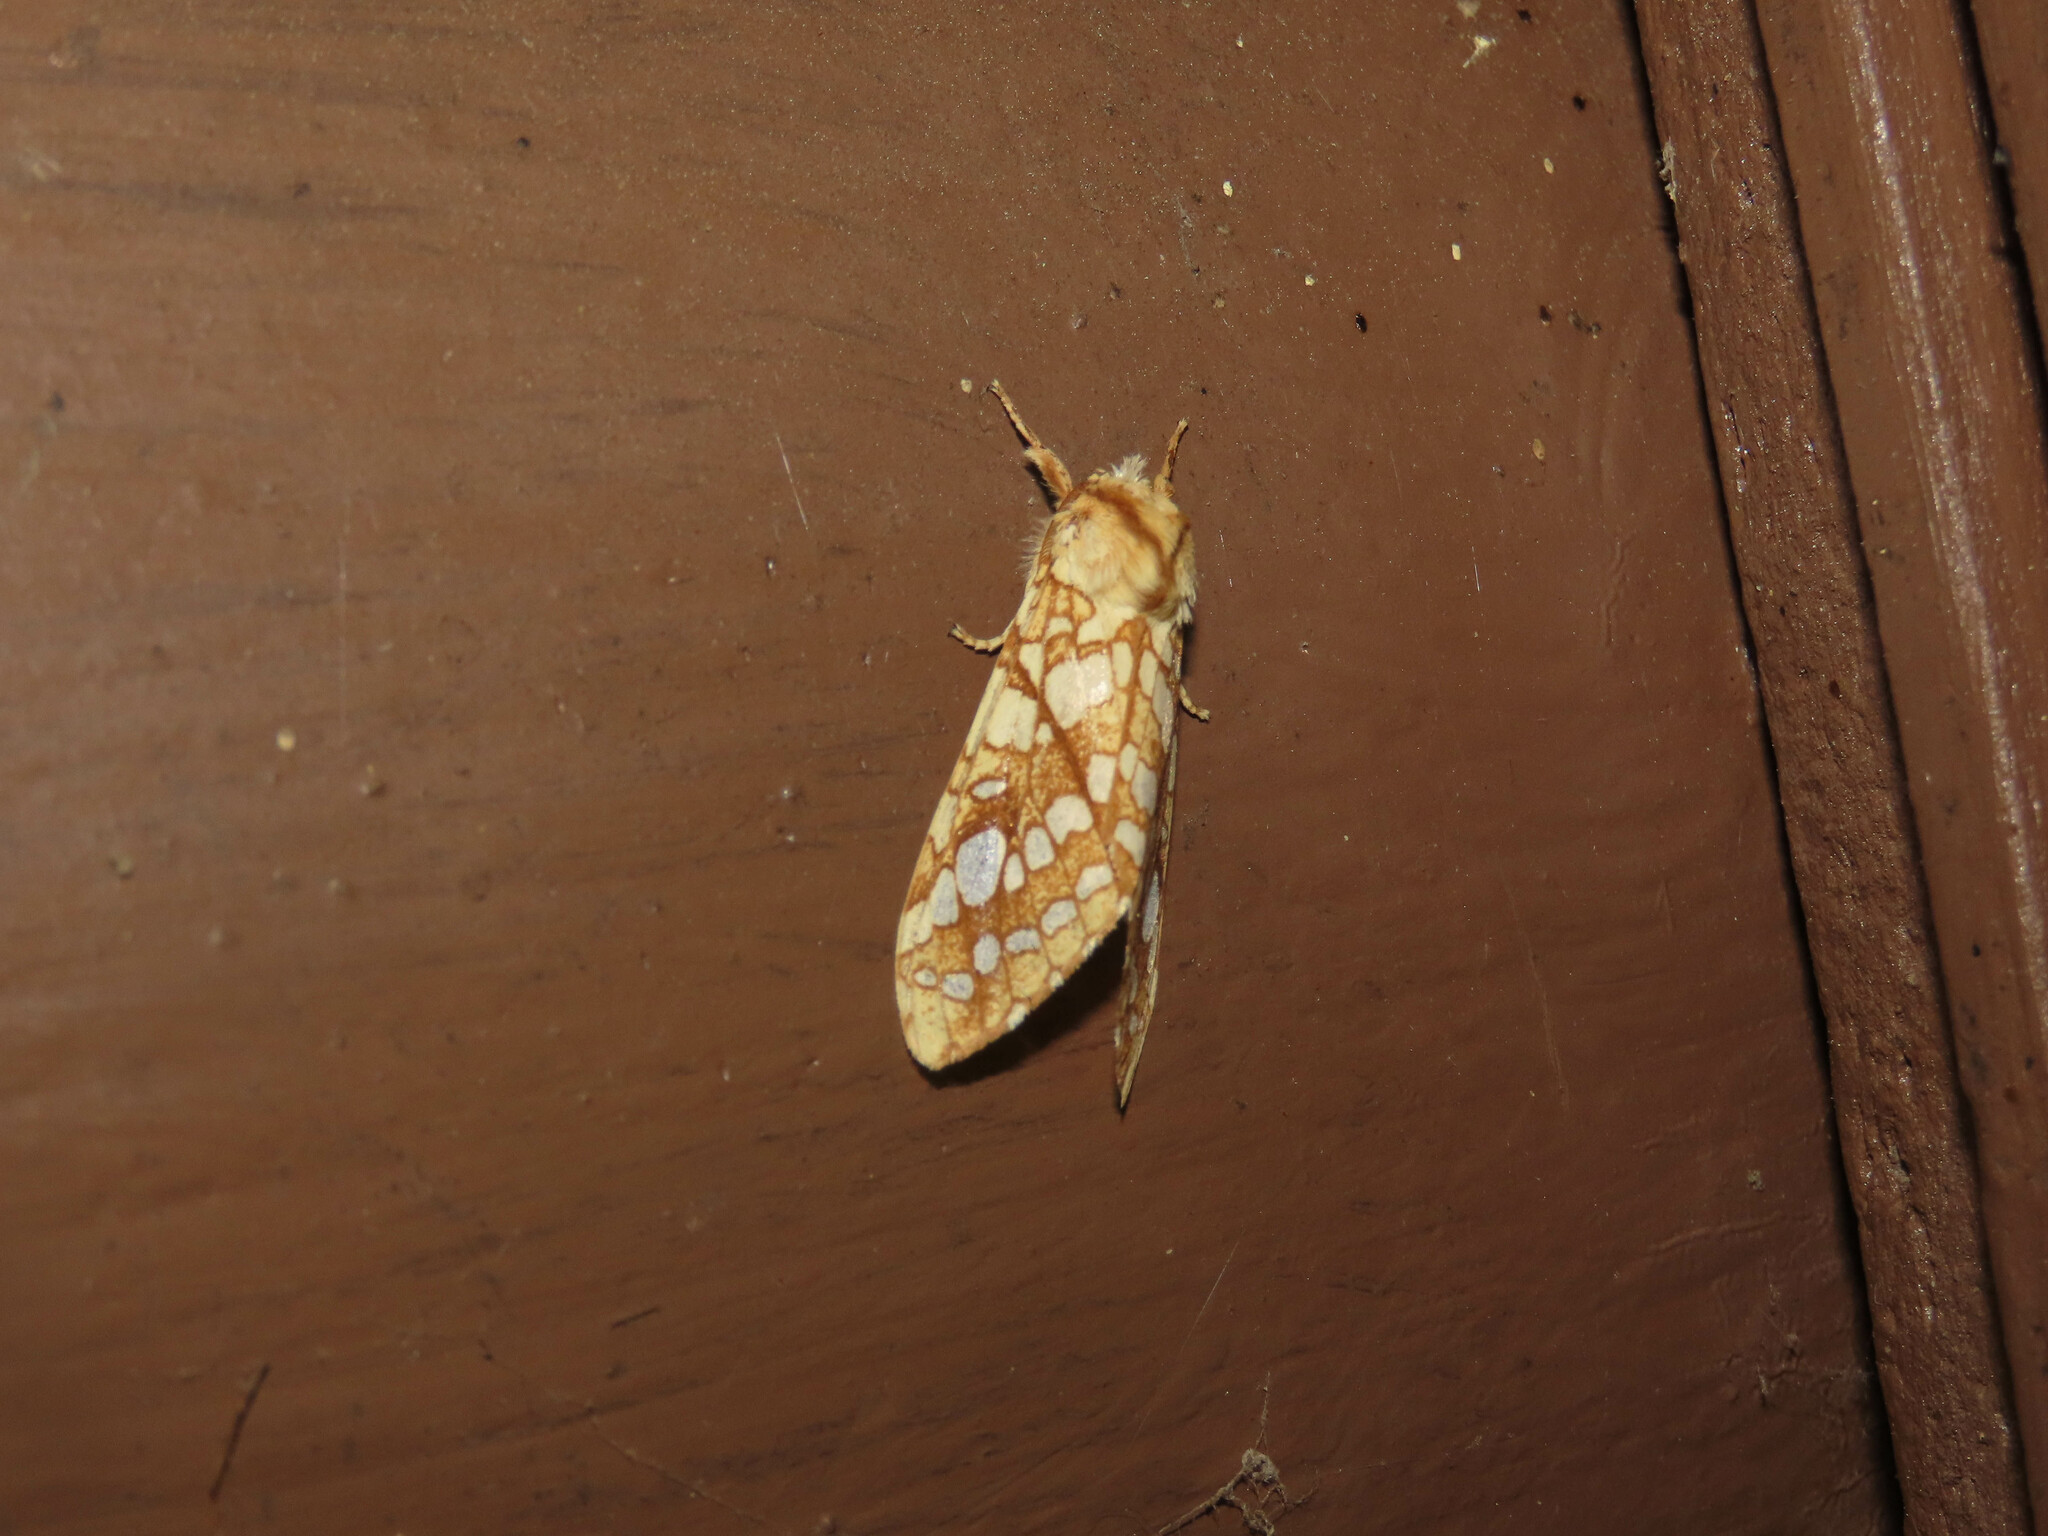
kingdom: Animalia
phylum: Arthropoda
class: Insecta
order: Lepidoptera
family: Erebidae
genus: Lophocampa
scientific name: Lophocampa caryae
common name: Hickory tussock moth
